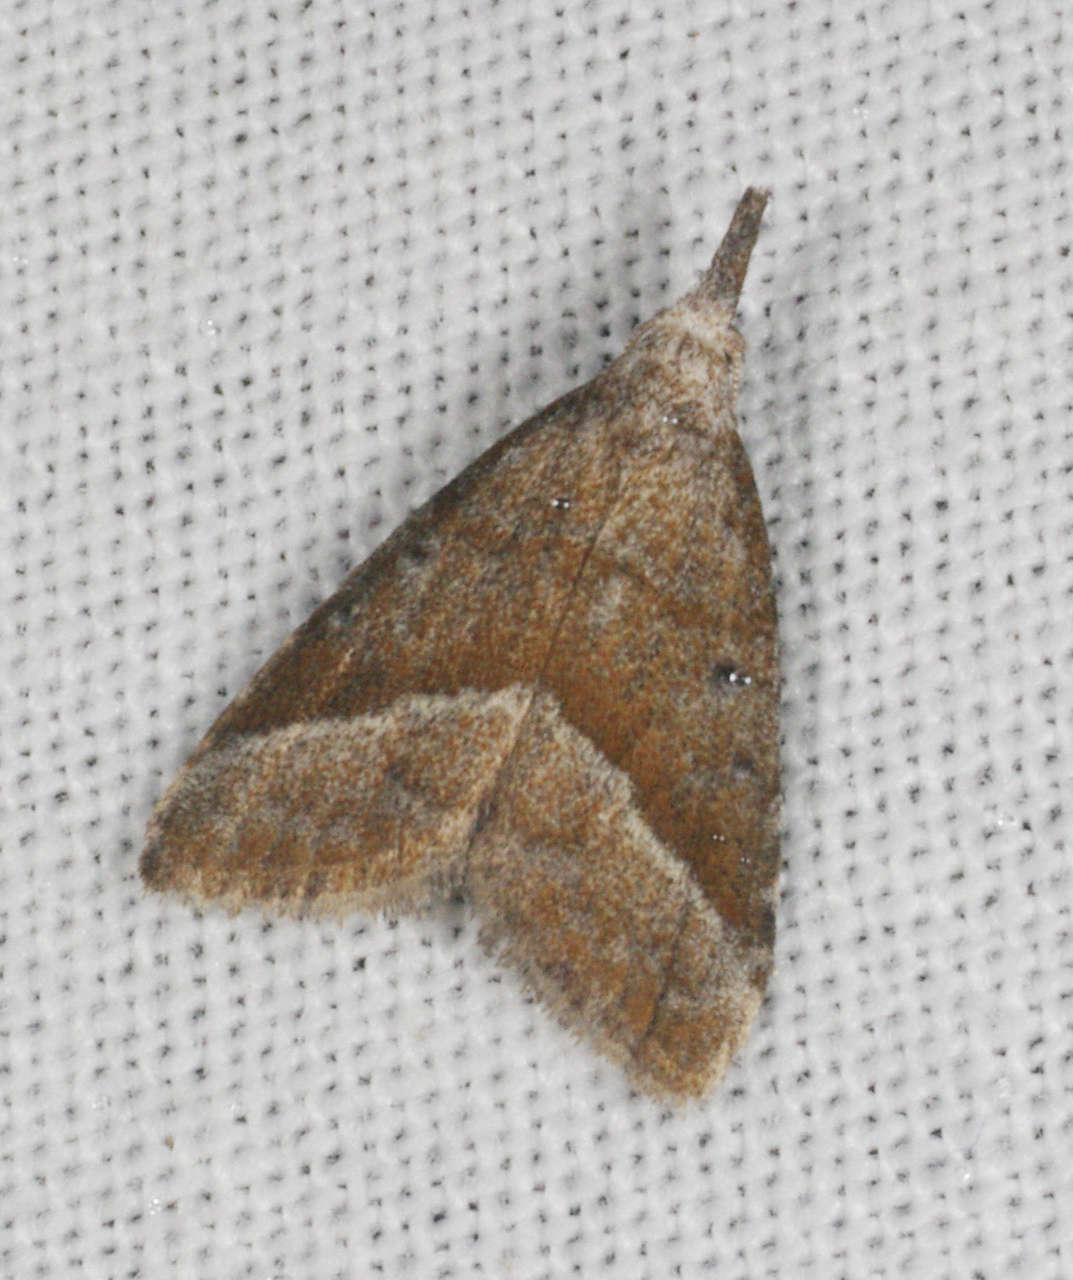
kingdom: Animalia
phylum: Arthropoda
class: Insecta
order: Lepidoptera
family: Nolidae
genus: Nola
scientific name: Nola tholera
